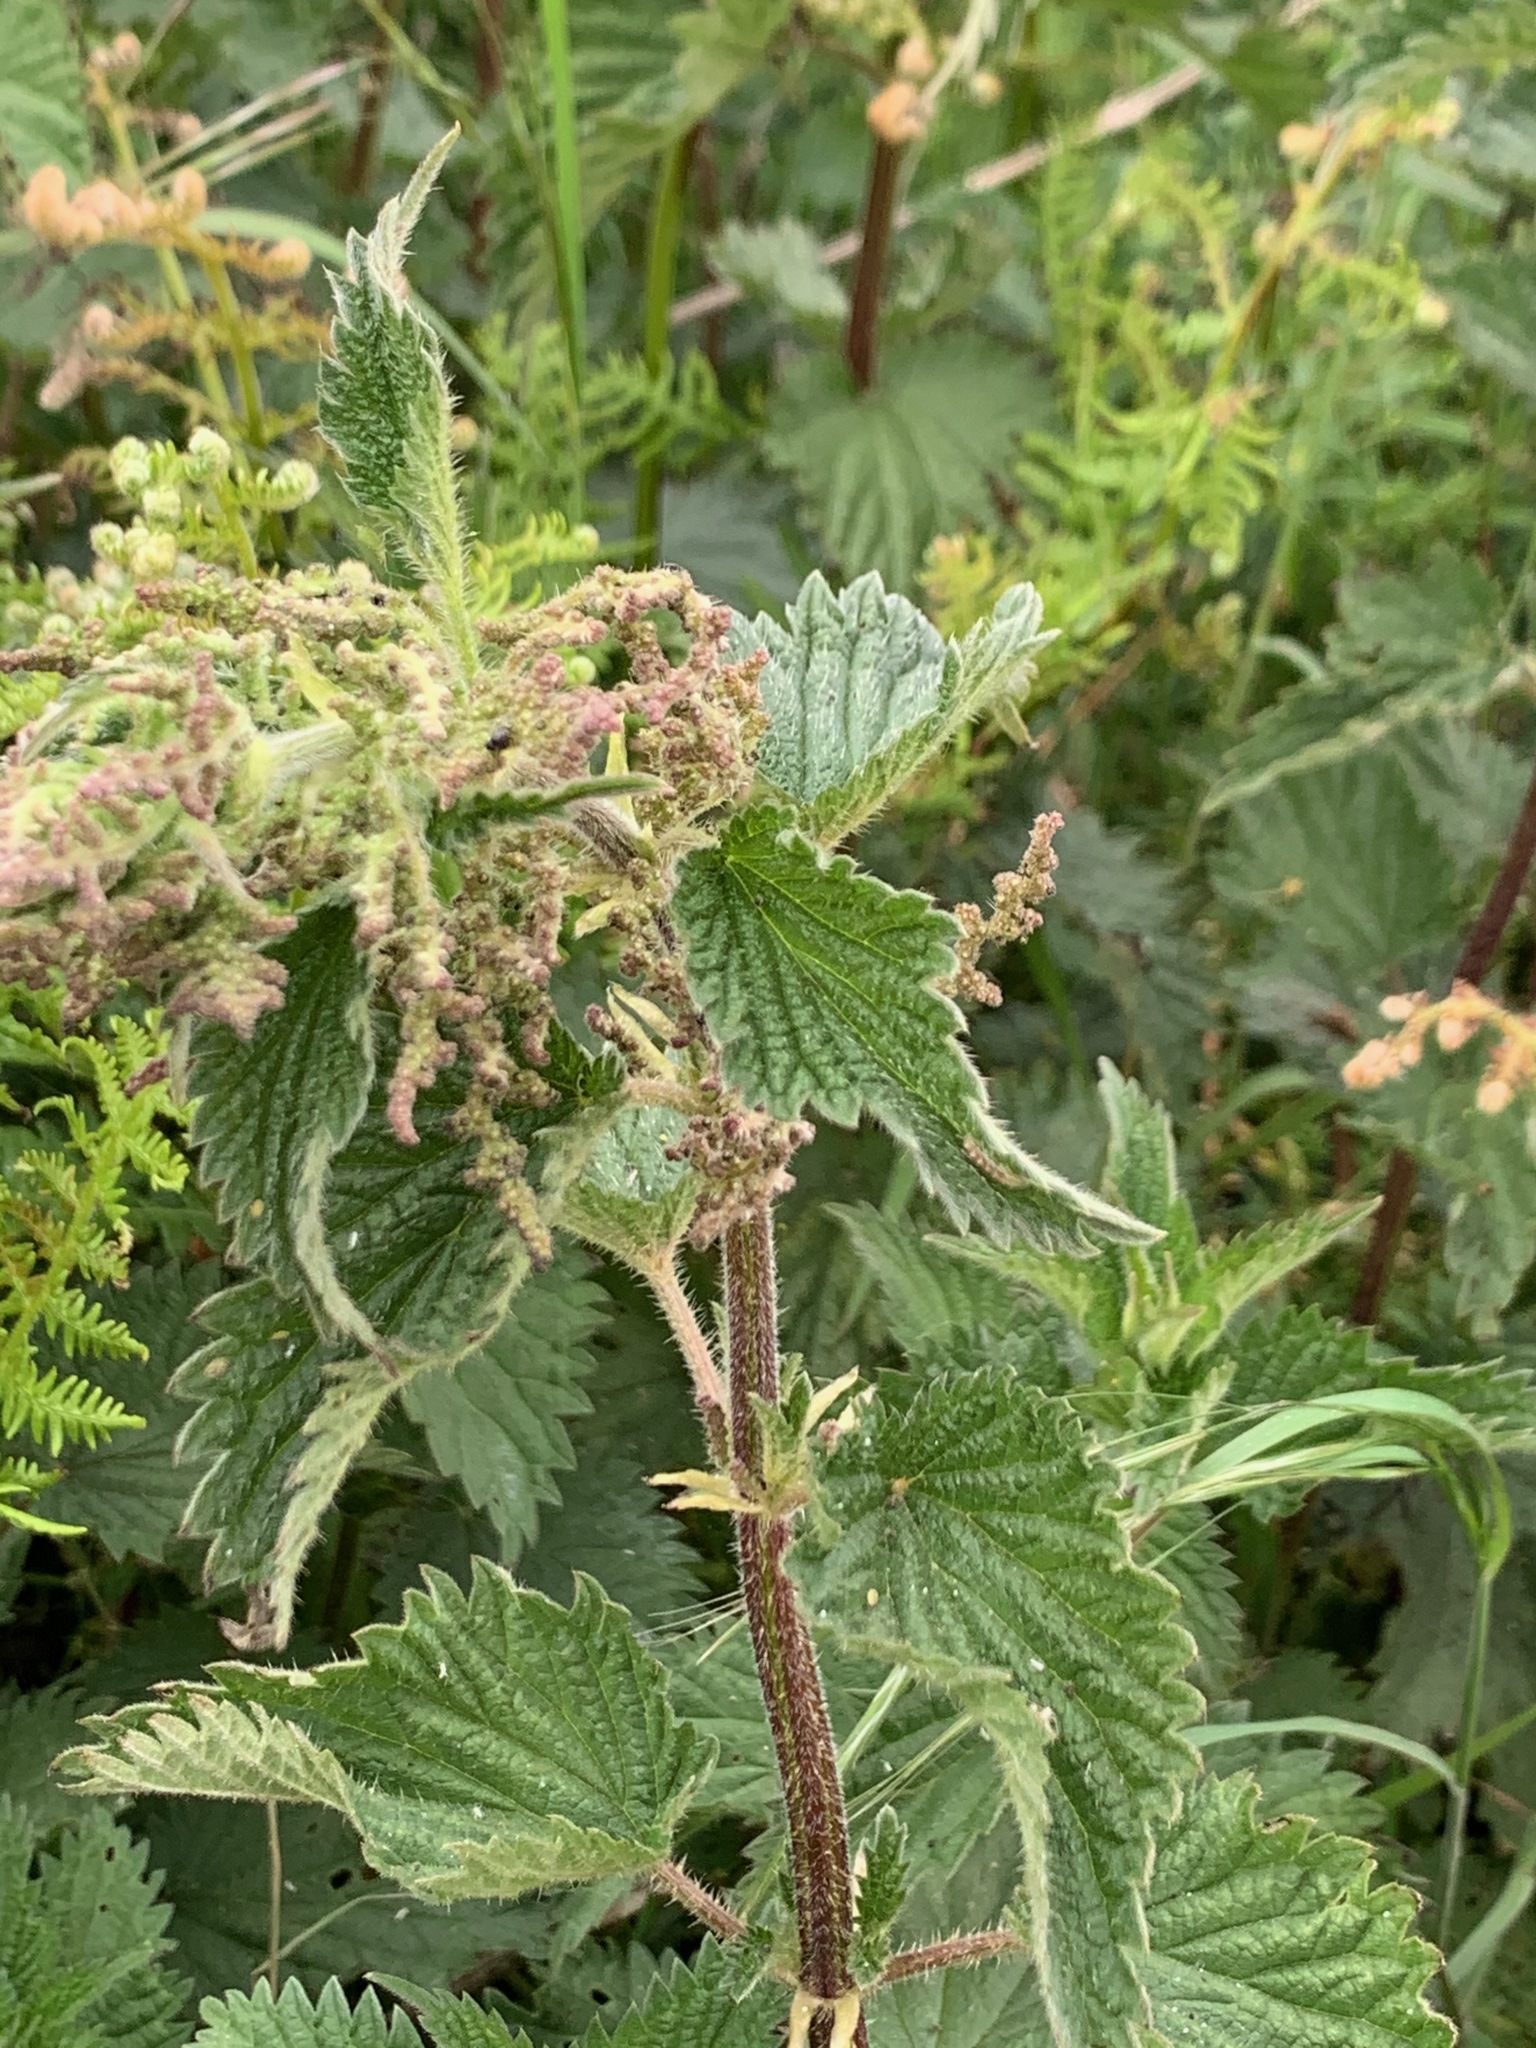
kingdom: Plantae
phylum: Tracheophyta
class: Magnoliopsida
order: Rosales
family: Urticaceae
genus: Urtica
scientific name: Urtica dioica
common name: Common nettle
